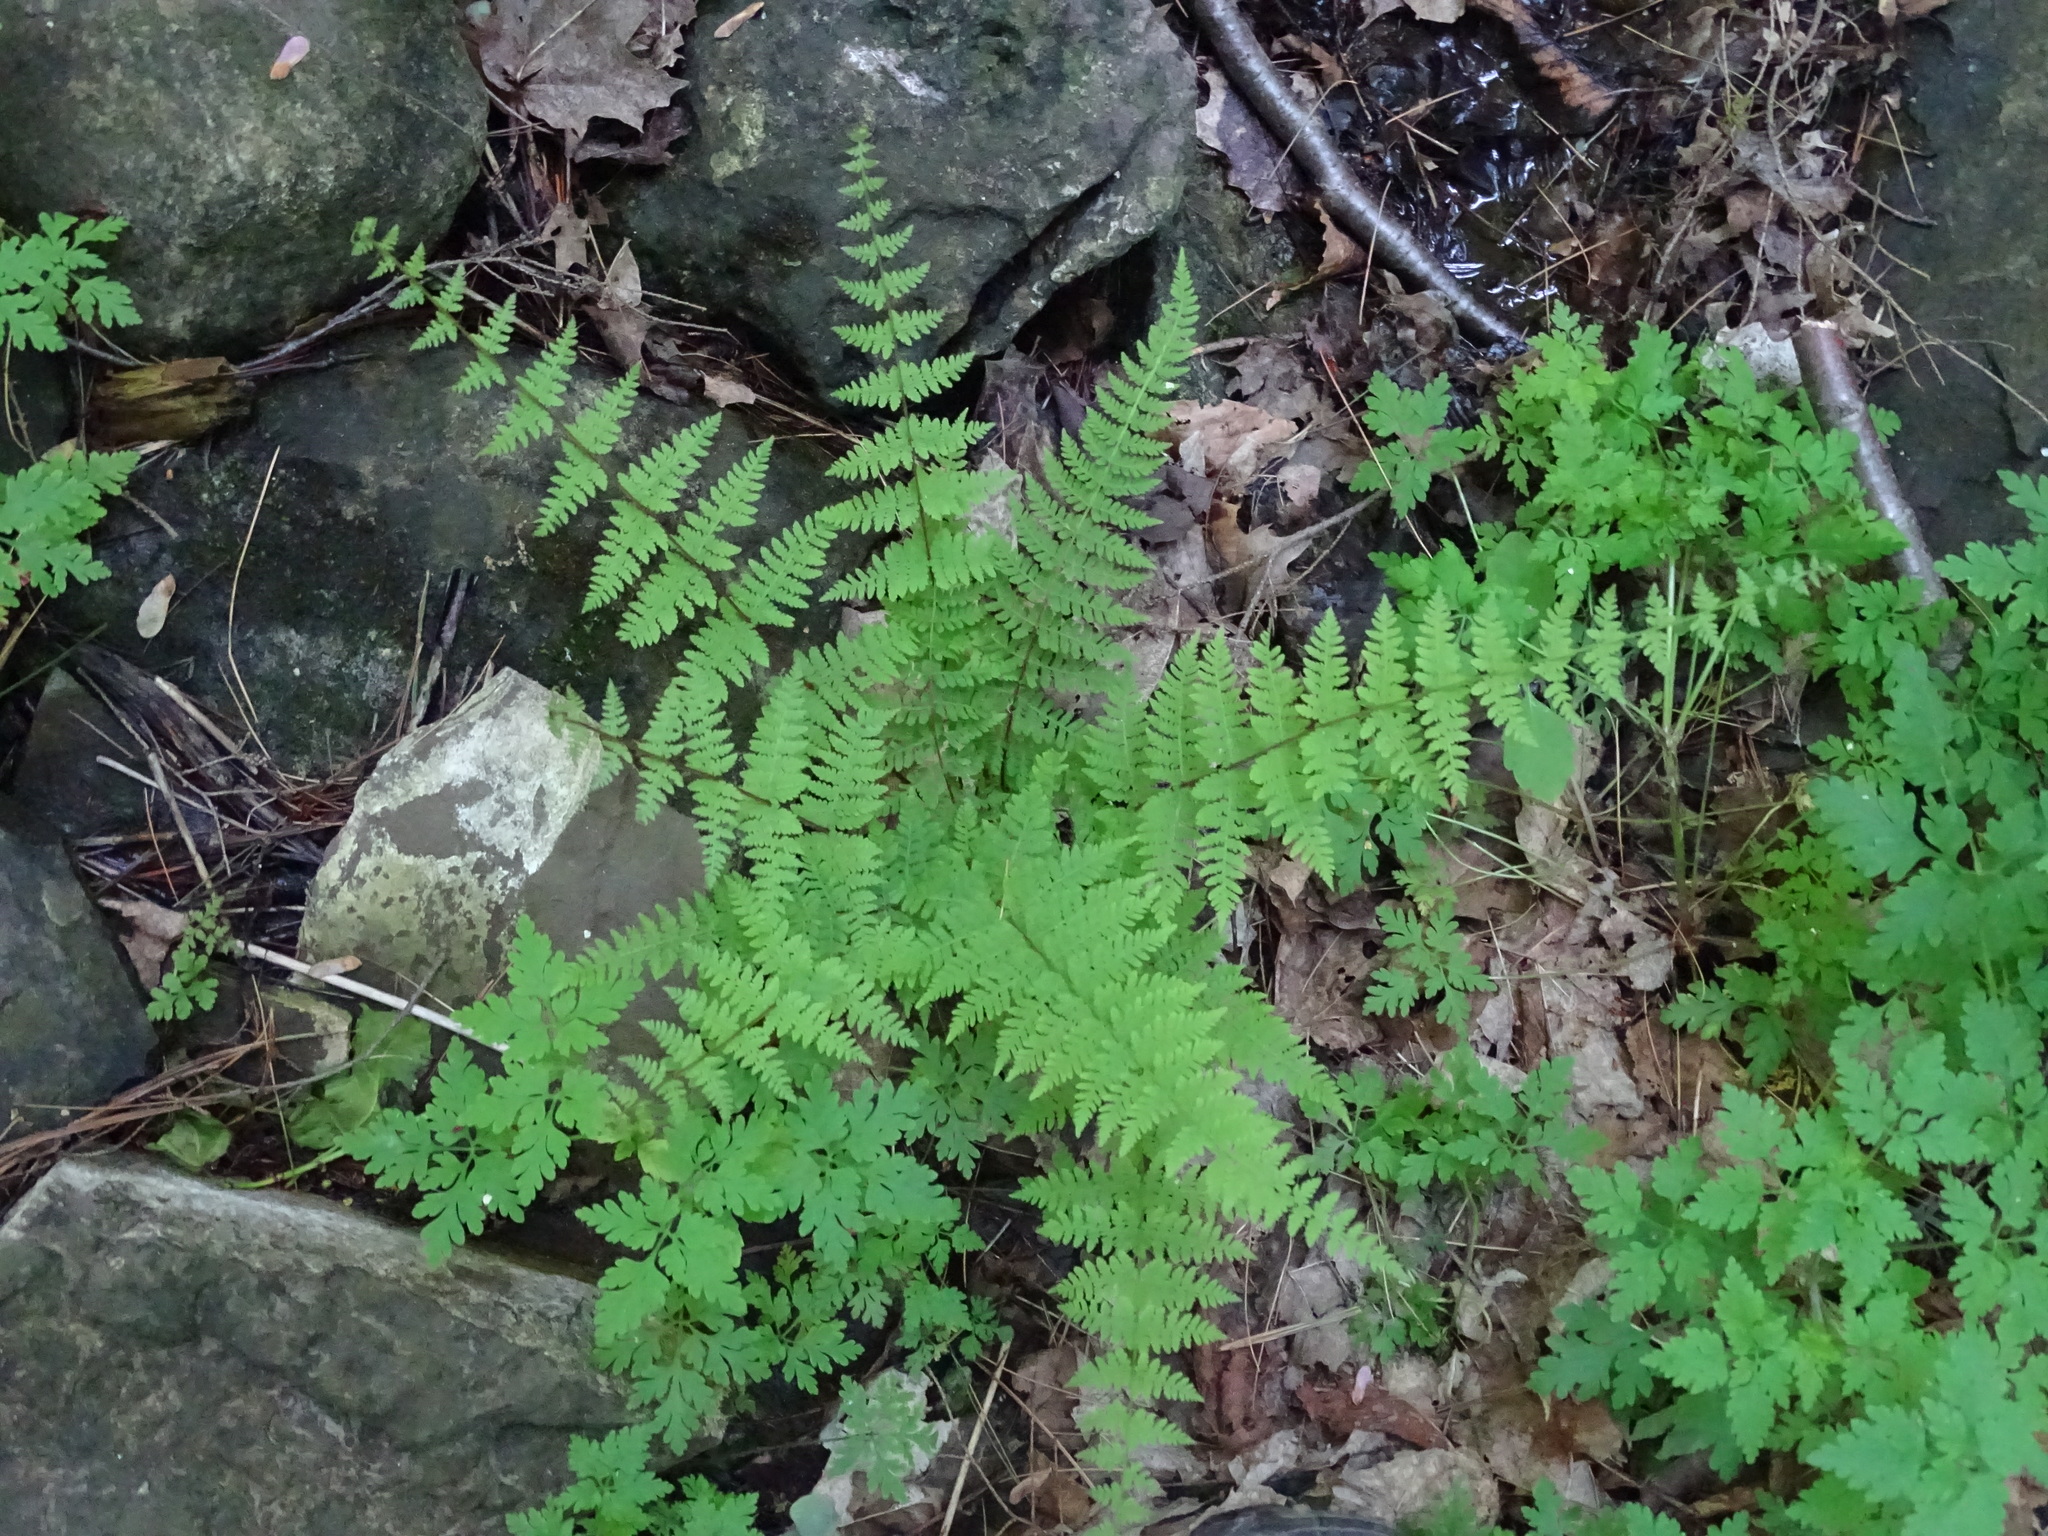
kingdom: Plantae
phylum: Tracheophyta
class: Polypodiopsida
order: Polypodiales
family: Cystopteridaceae
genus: Cystopteris
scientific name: Cystopteris bulbifera
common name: Bulblet bladder fern
